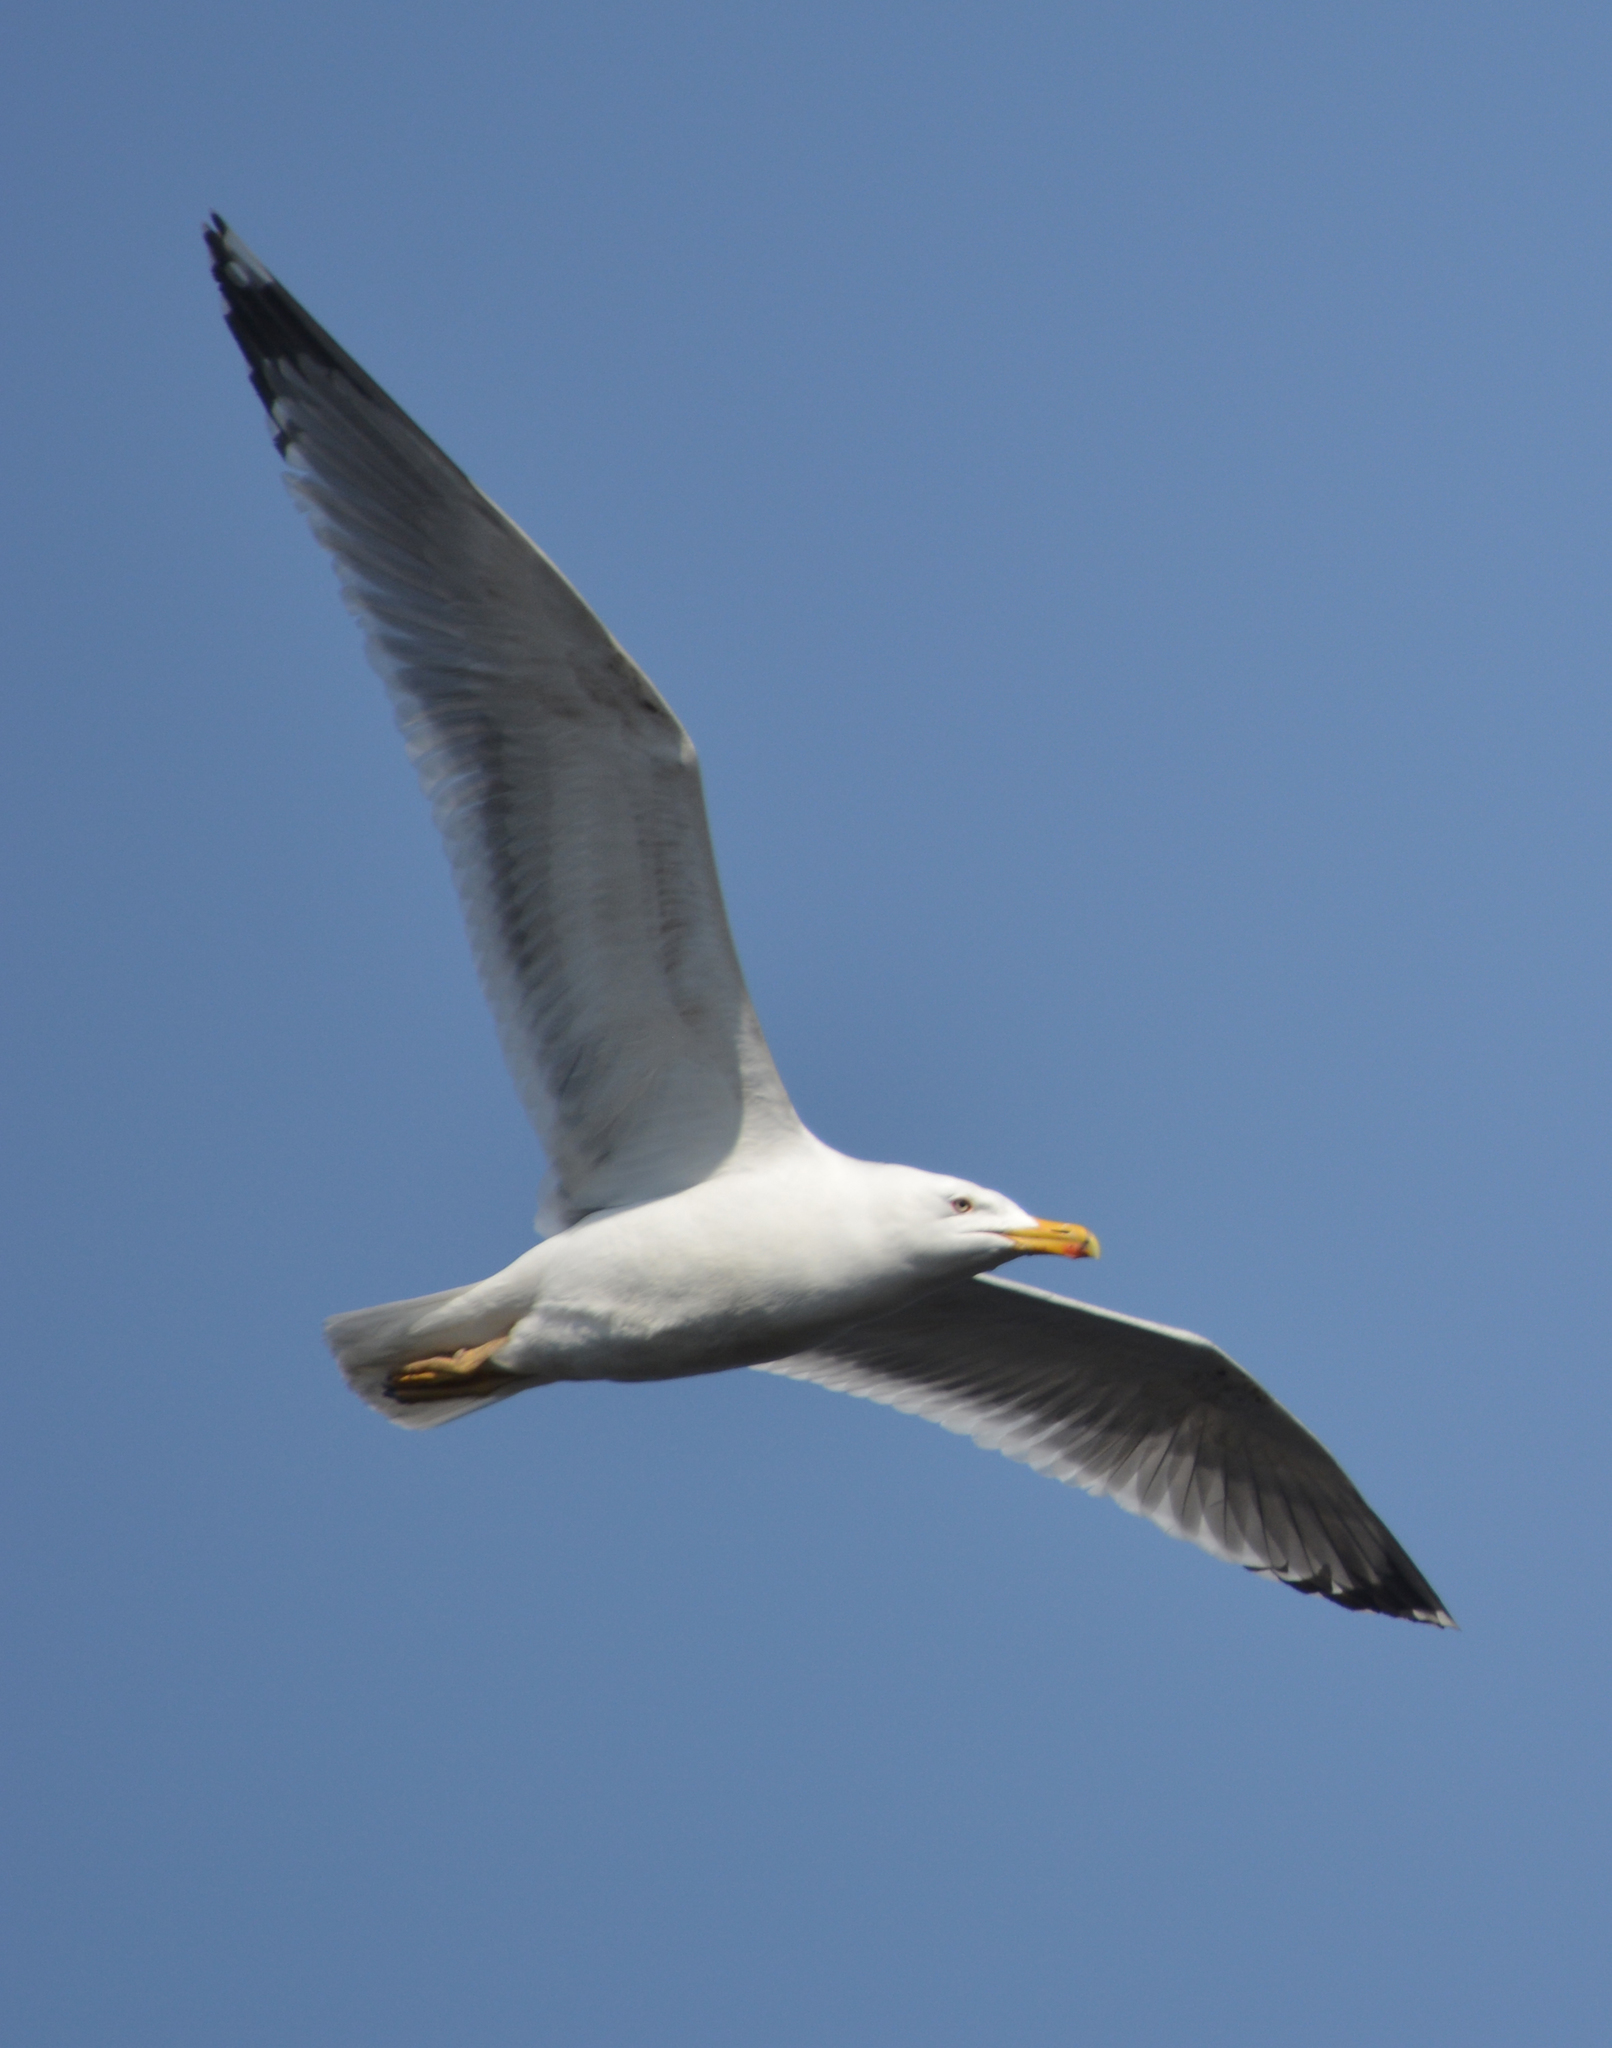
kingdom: Animalia
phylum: Chordata
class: Aves
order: Charadriiformes
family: Laridae
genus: Larus
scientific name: Larus argentatus
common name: Herring gull
